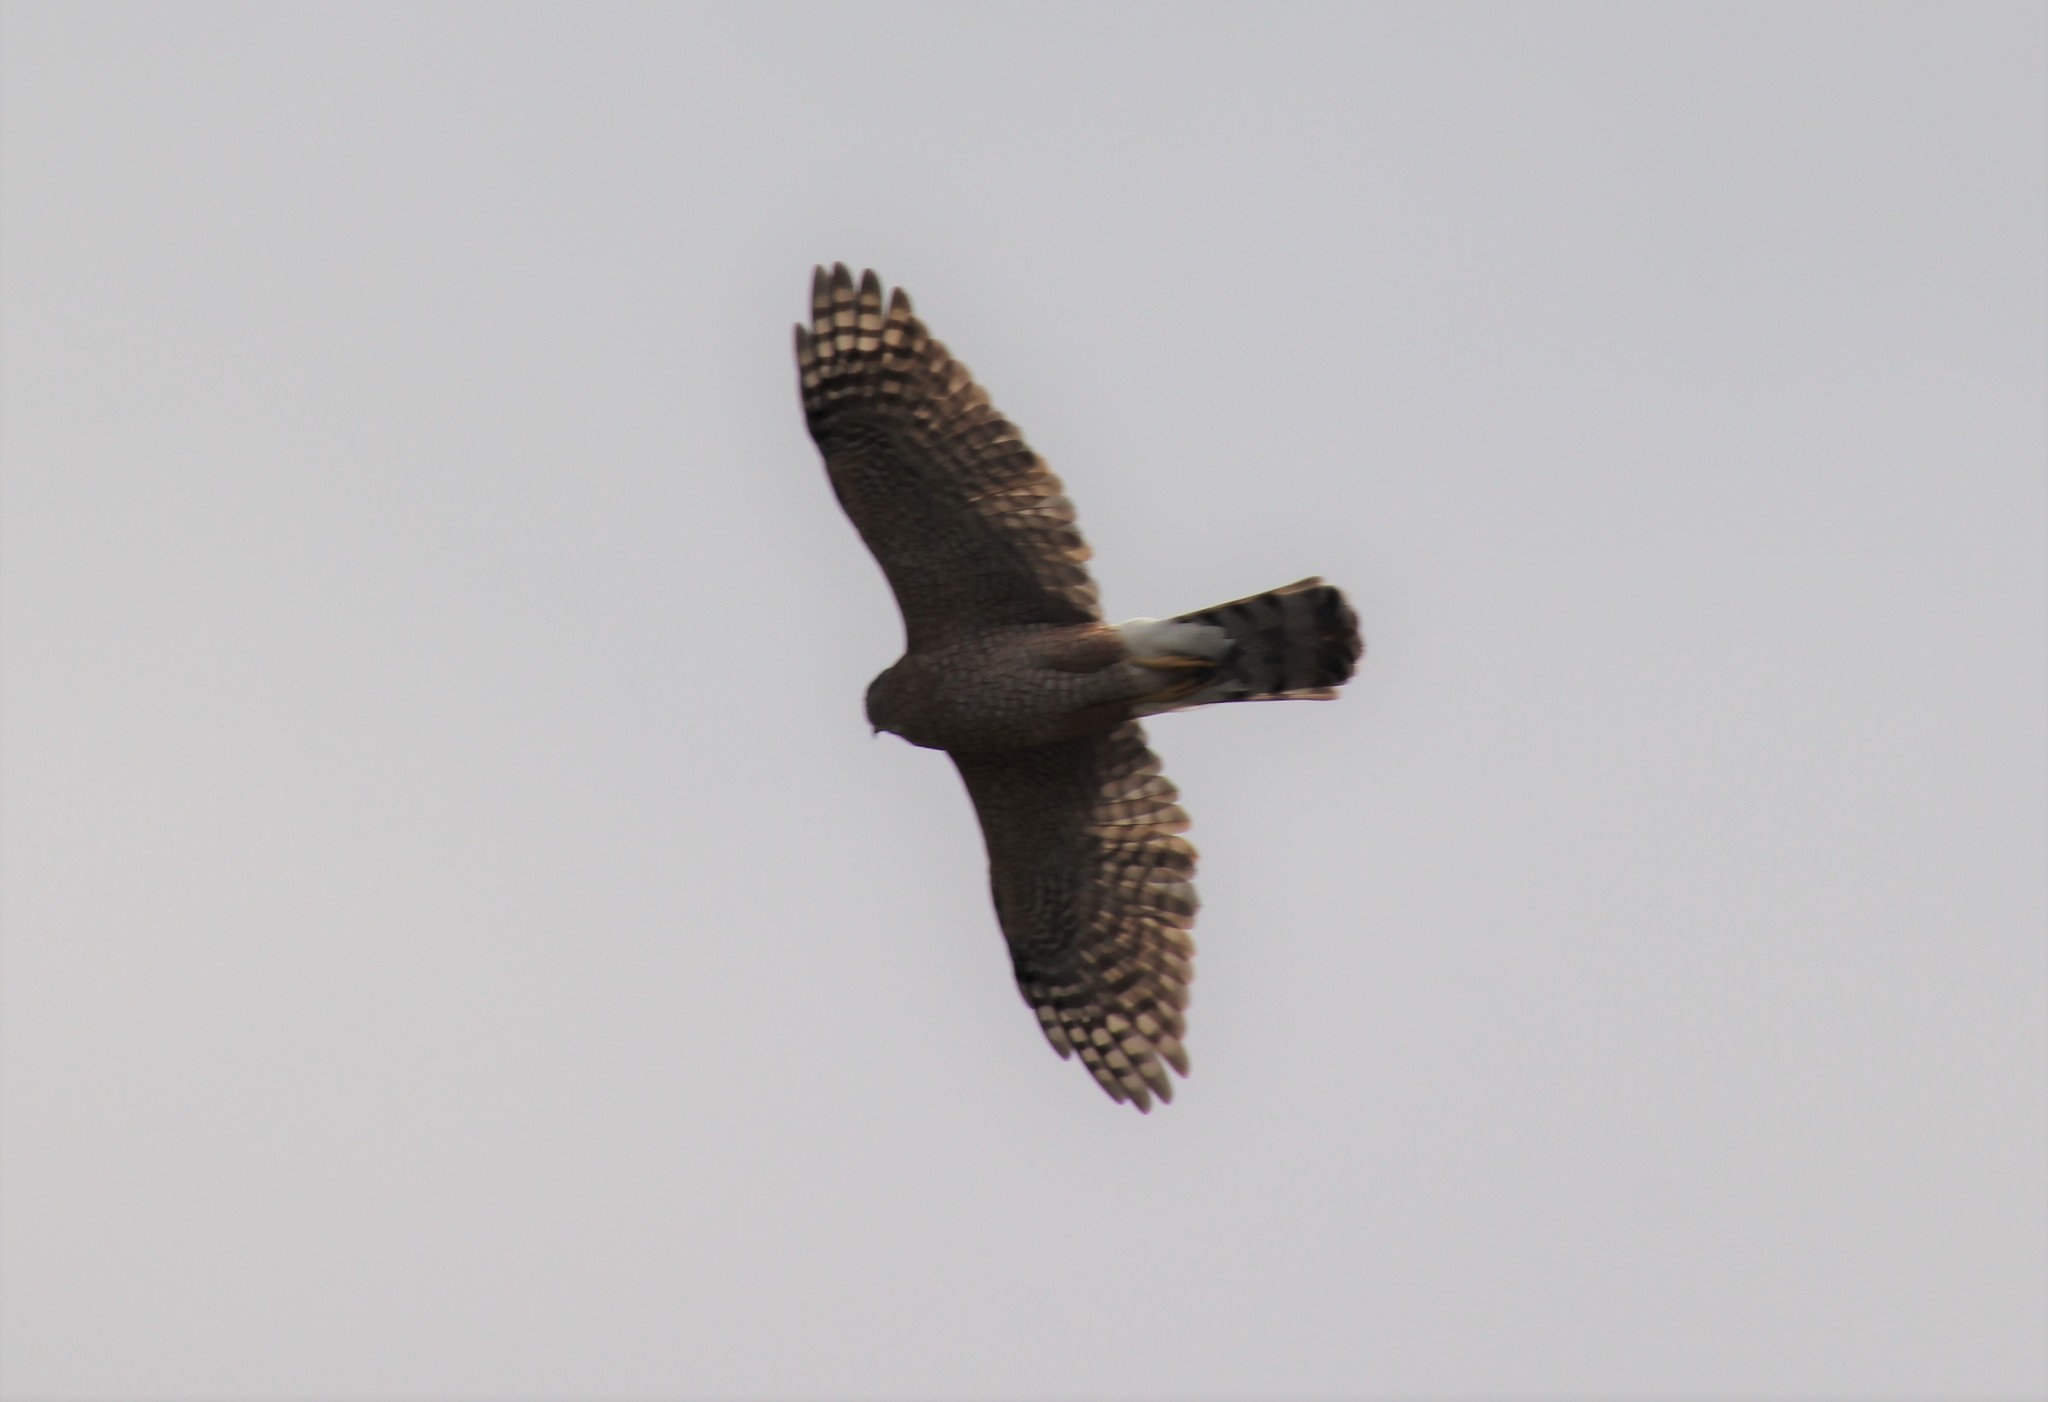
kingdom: Animalia
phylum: Chordata
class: Aves
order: Accipitriformes
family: Accipitridae
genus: Accipiter
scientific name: Accipiter cooperii
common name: Cooper's hawk
